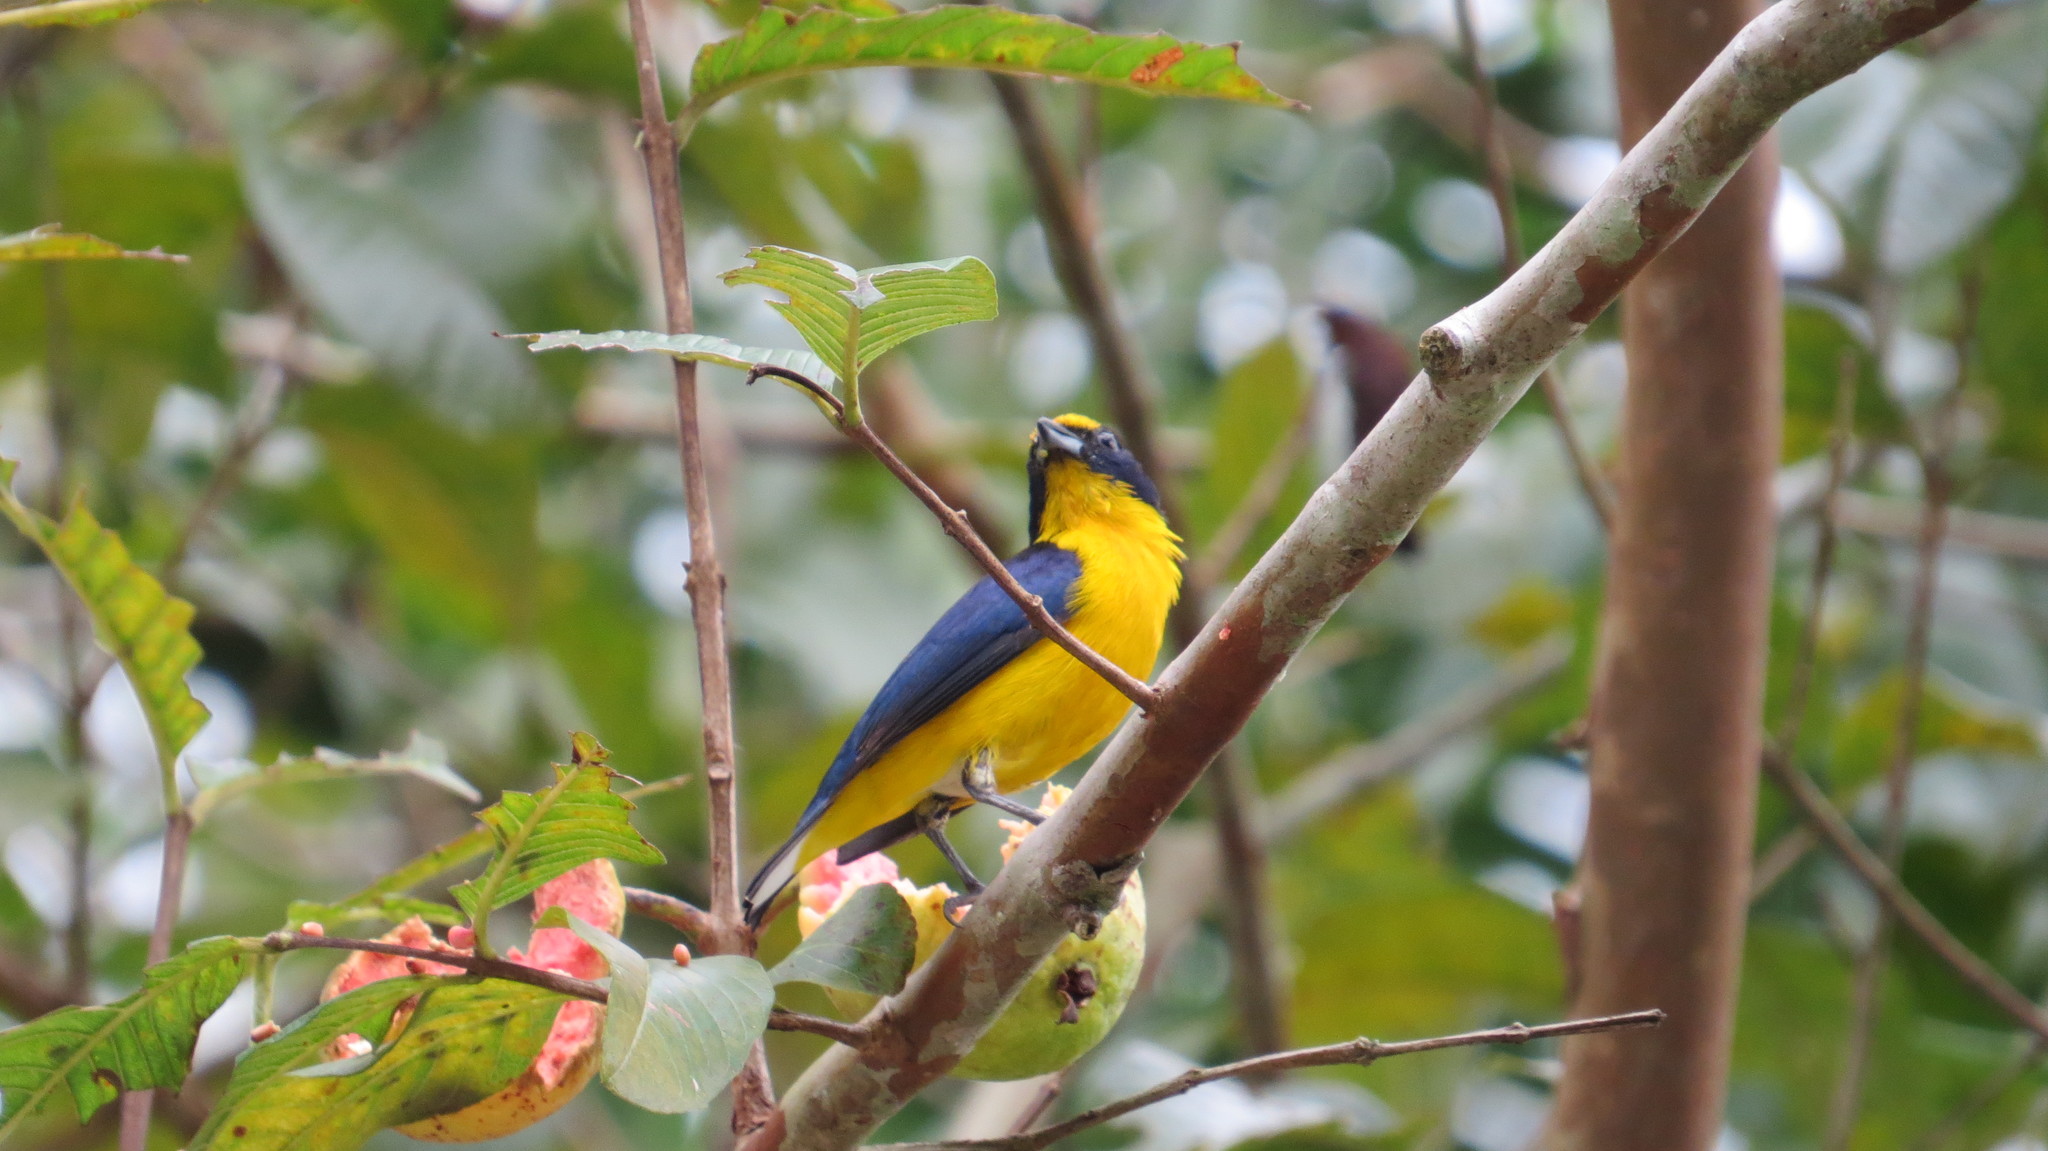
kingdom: Animalia
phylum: Chordata
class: Aves
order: Passeriformes
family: Fringillidae
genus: Euphonia
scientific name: Euphonia hirundinacea
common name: Yellow-throated euphonia
